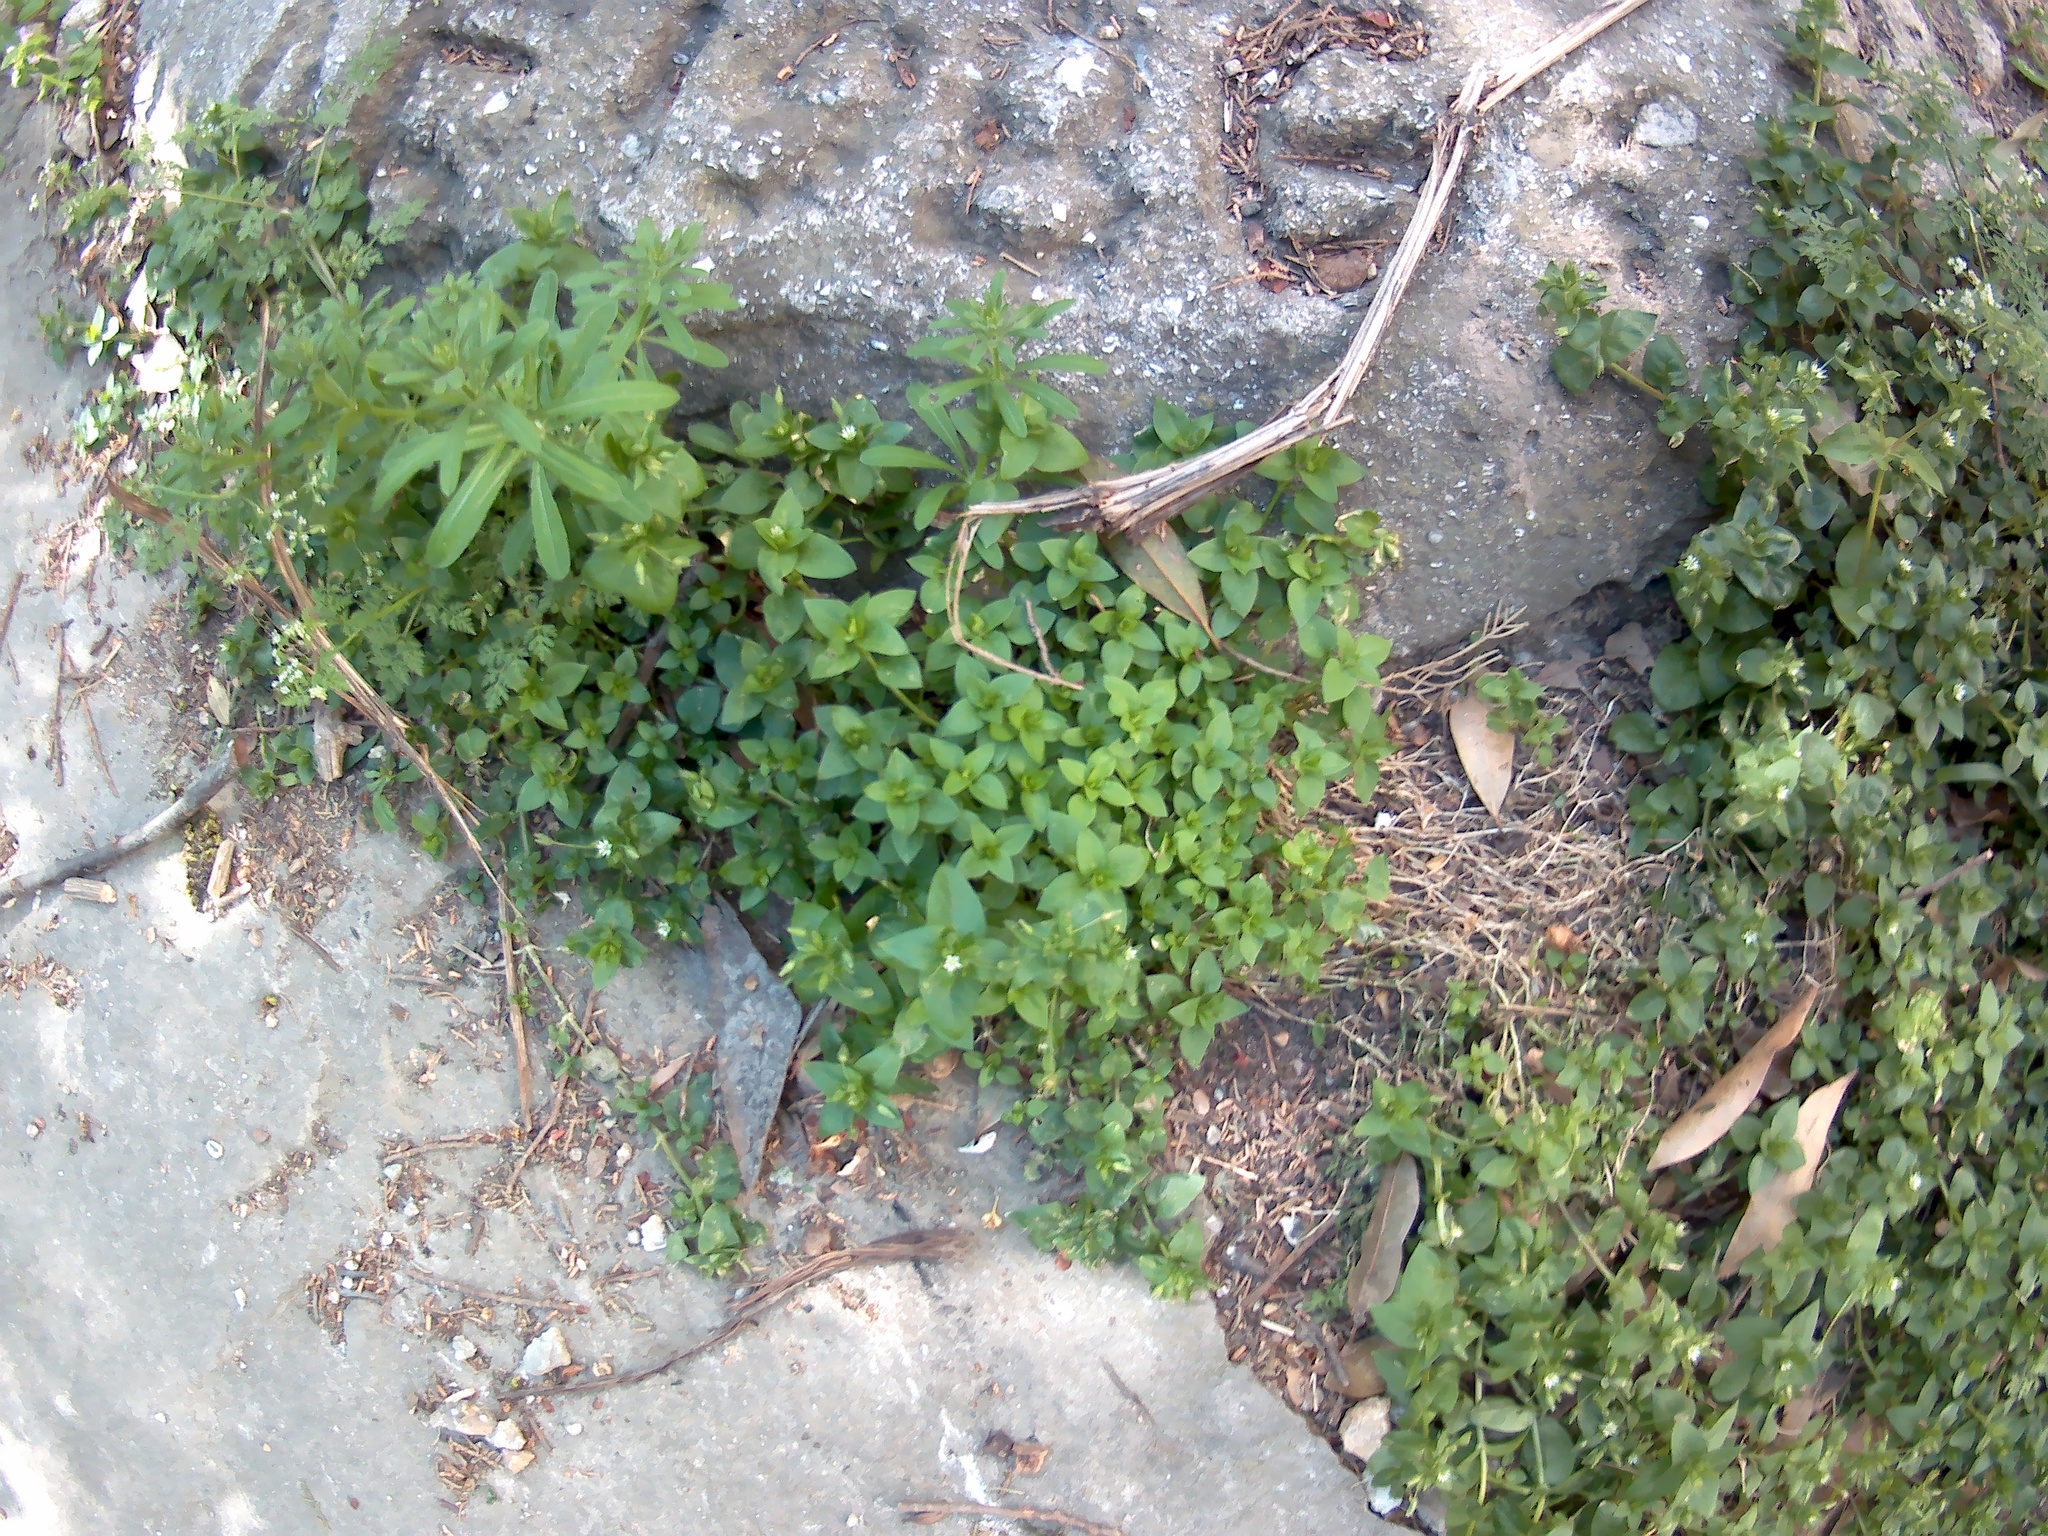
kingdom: Plantae
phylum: Tracheophyta
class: Magnoliopsida
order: Caryophyllales
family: Caryophyllaceae
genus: Stellaria
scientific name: Stellaria media
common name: Common chickweed
